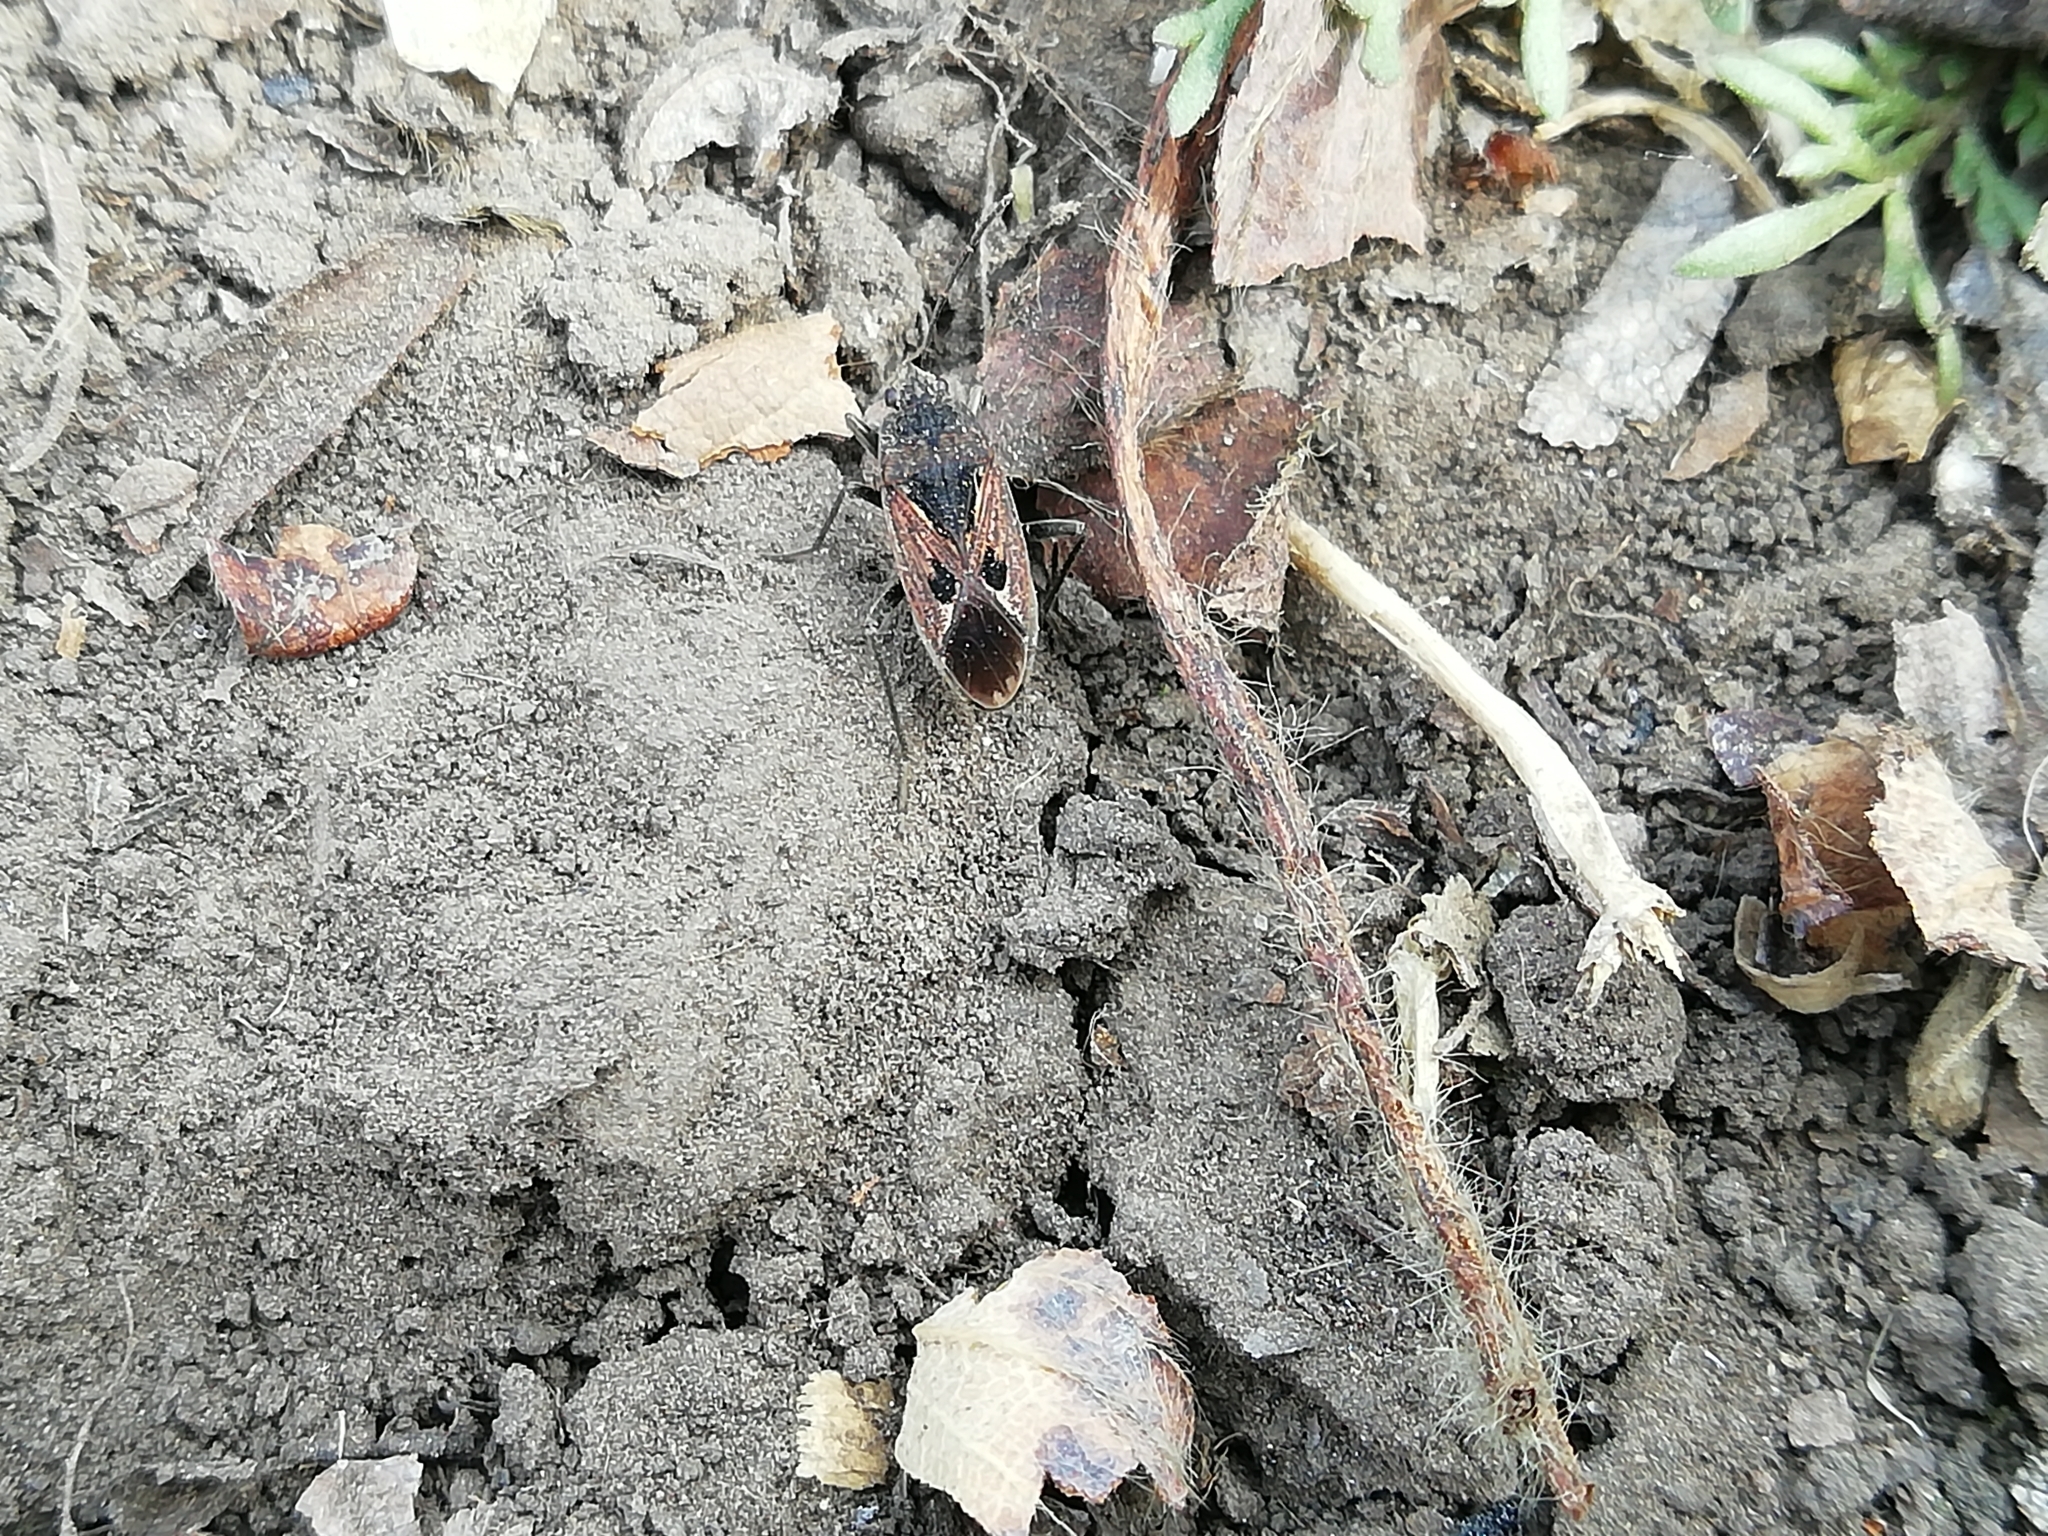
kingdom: Animalia
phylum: Arthropoda
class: Insecta
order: Hemiptera
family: Rhyparochromidae
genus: Rhyparochromus
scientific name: Rhyparochromus vulgaris
